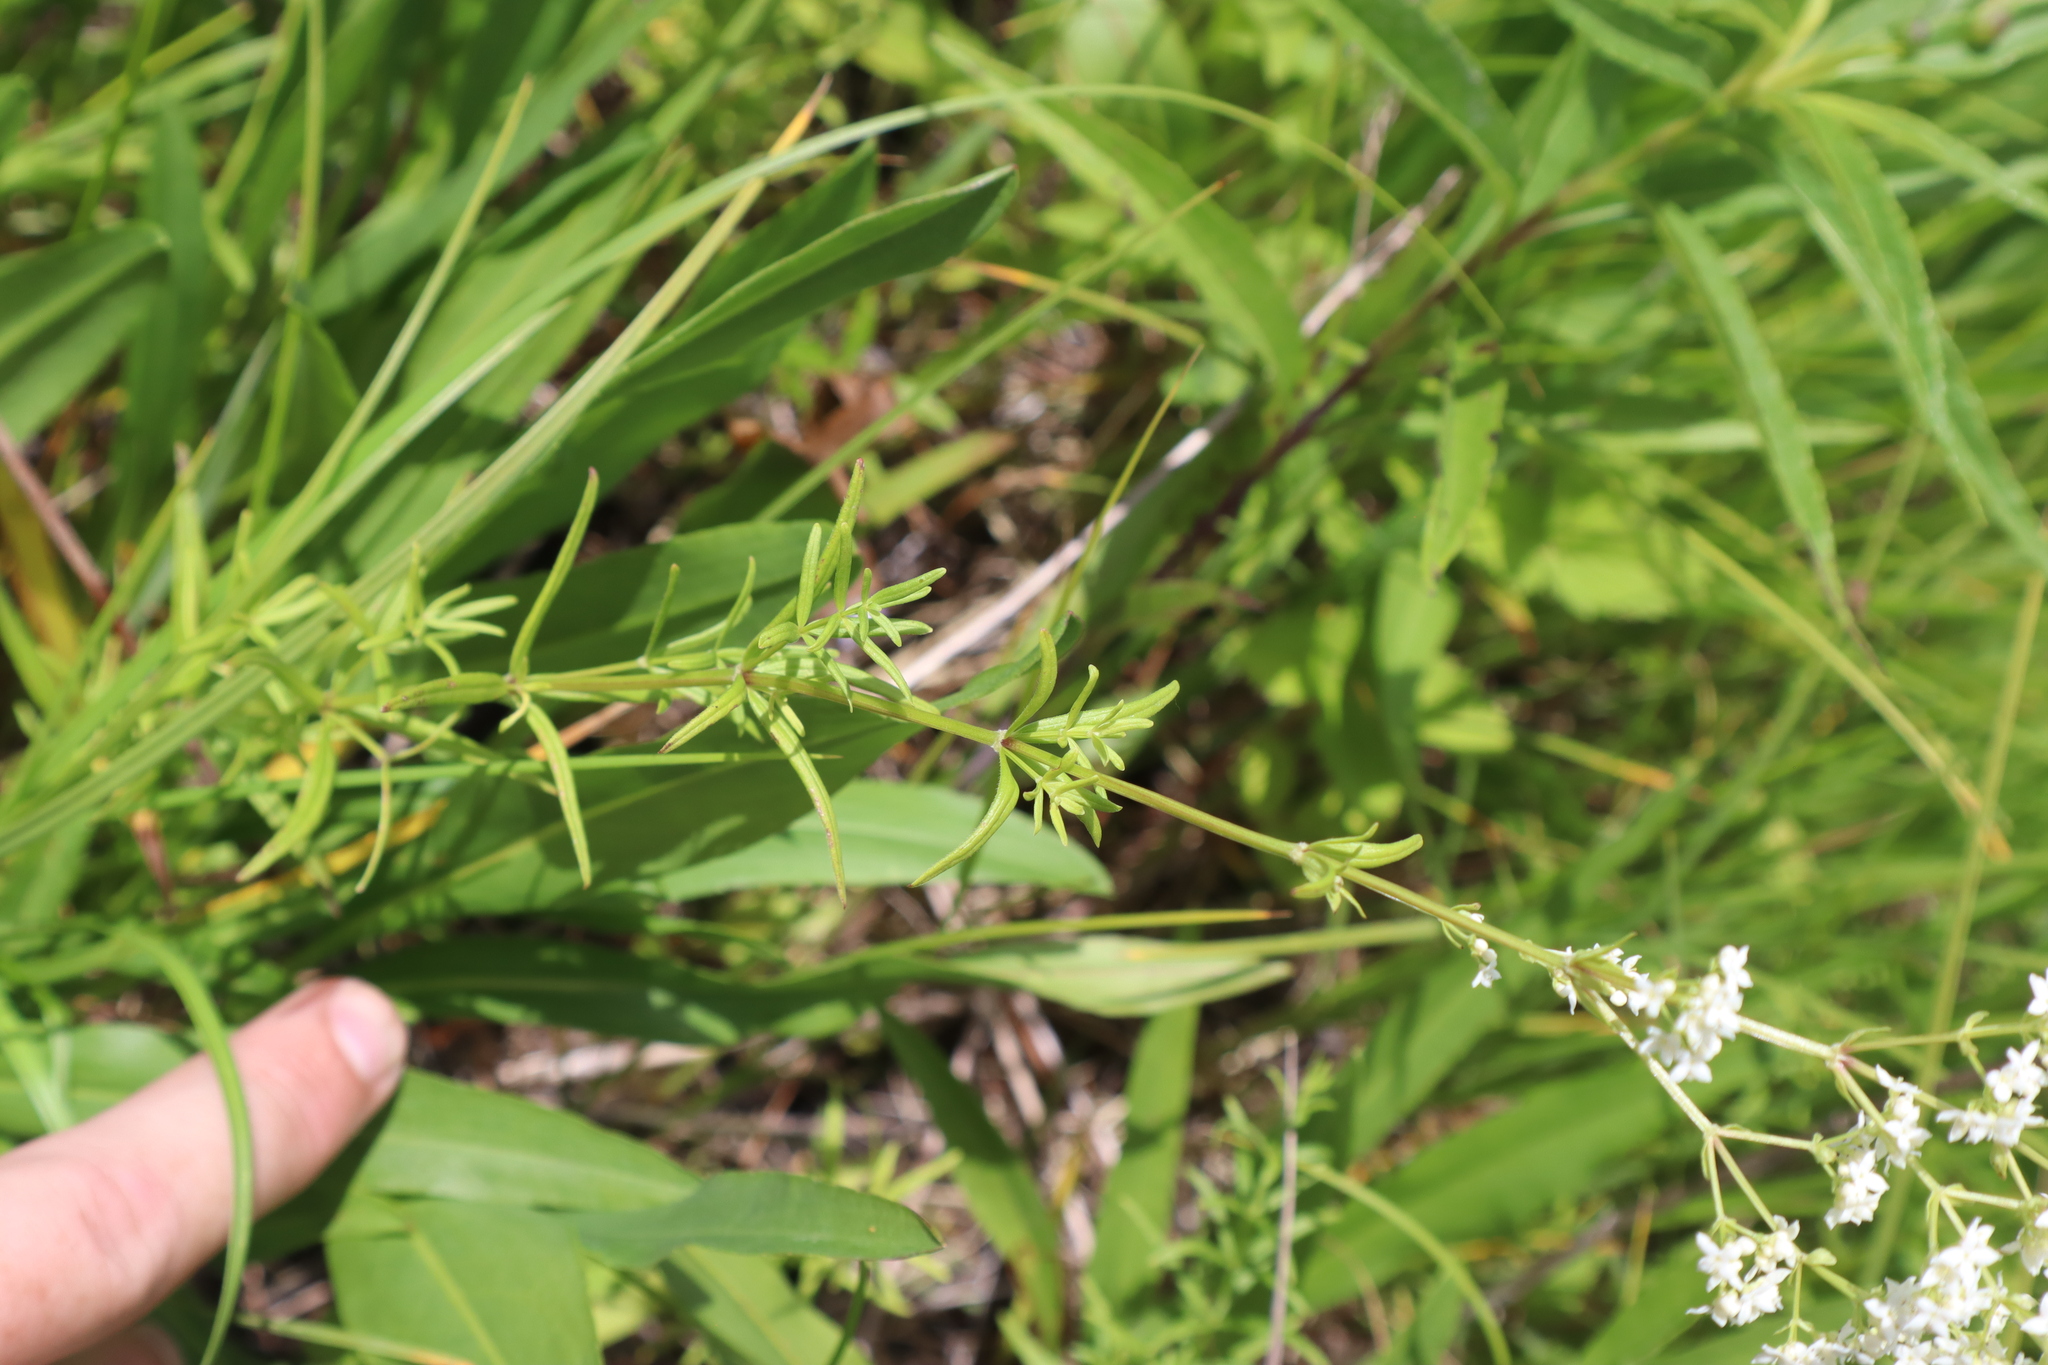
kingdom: Plantae
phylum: Tracheophyta
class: Magnoliopsida
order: Gentianales
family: Rubiaceae
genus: Galium
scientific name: Galium boreale
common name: Northern bedstraw
